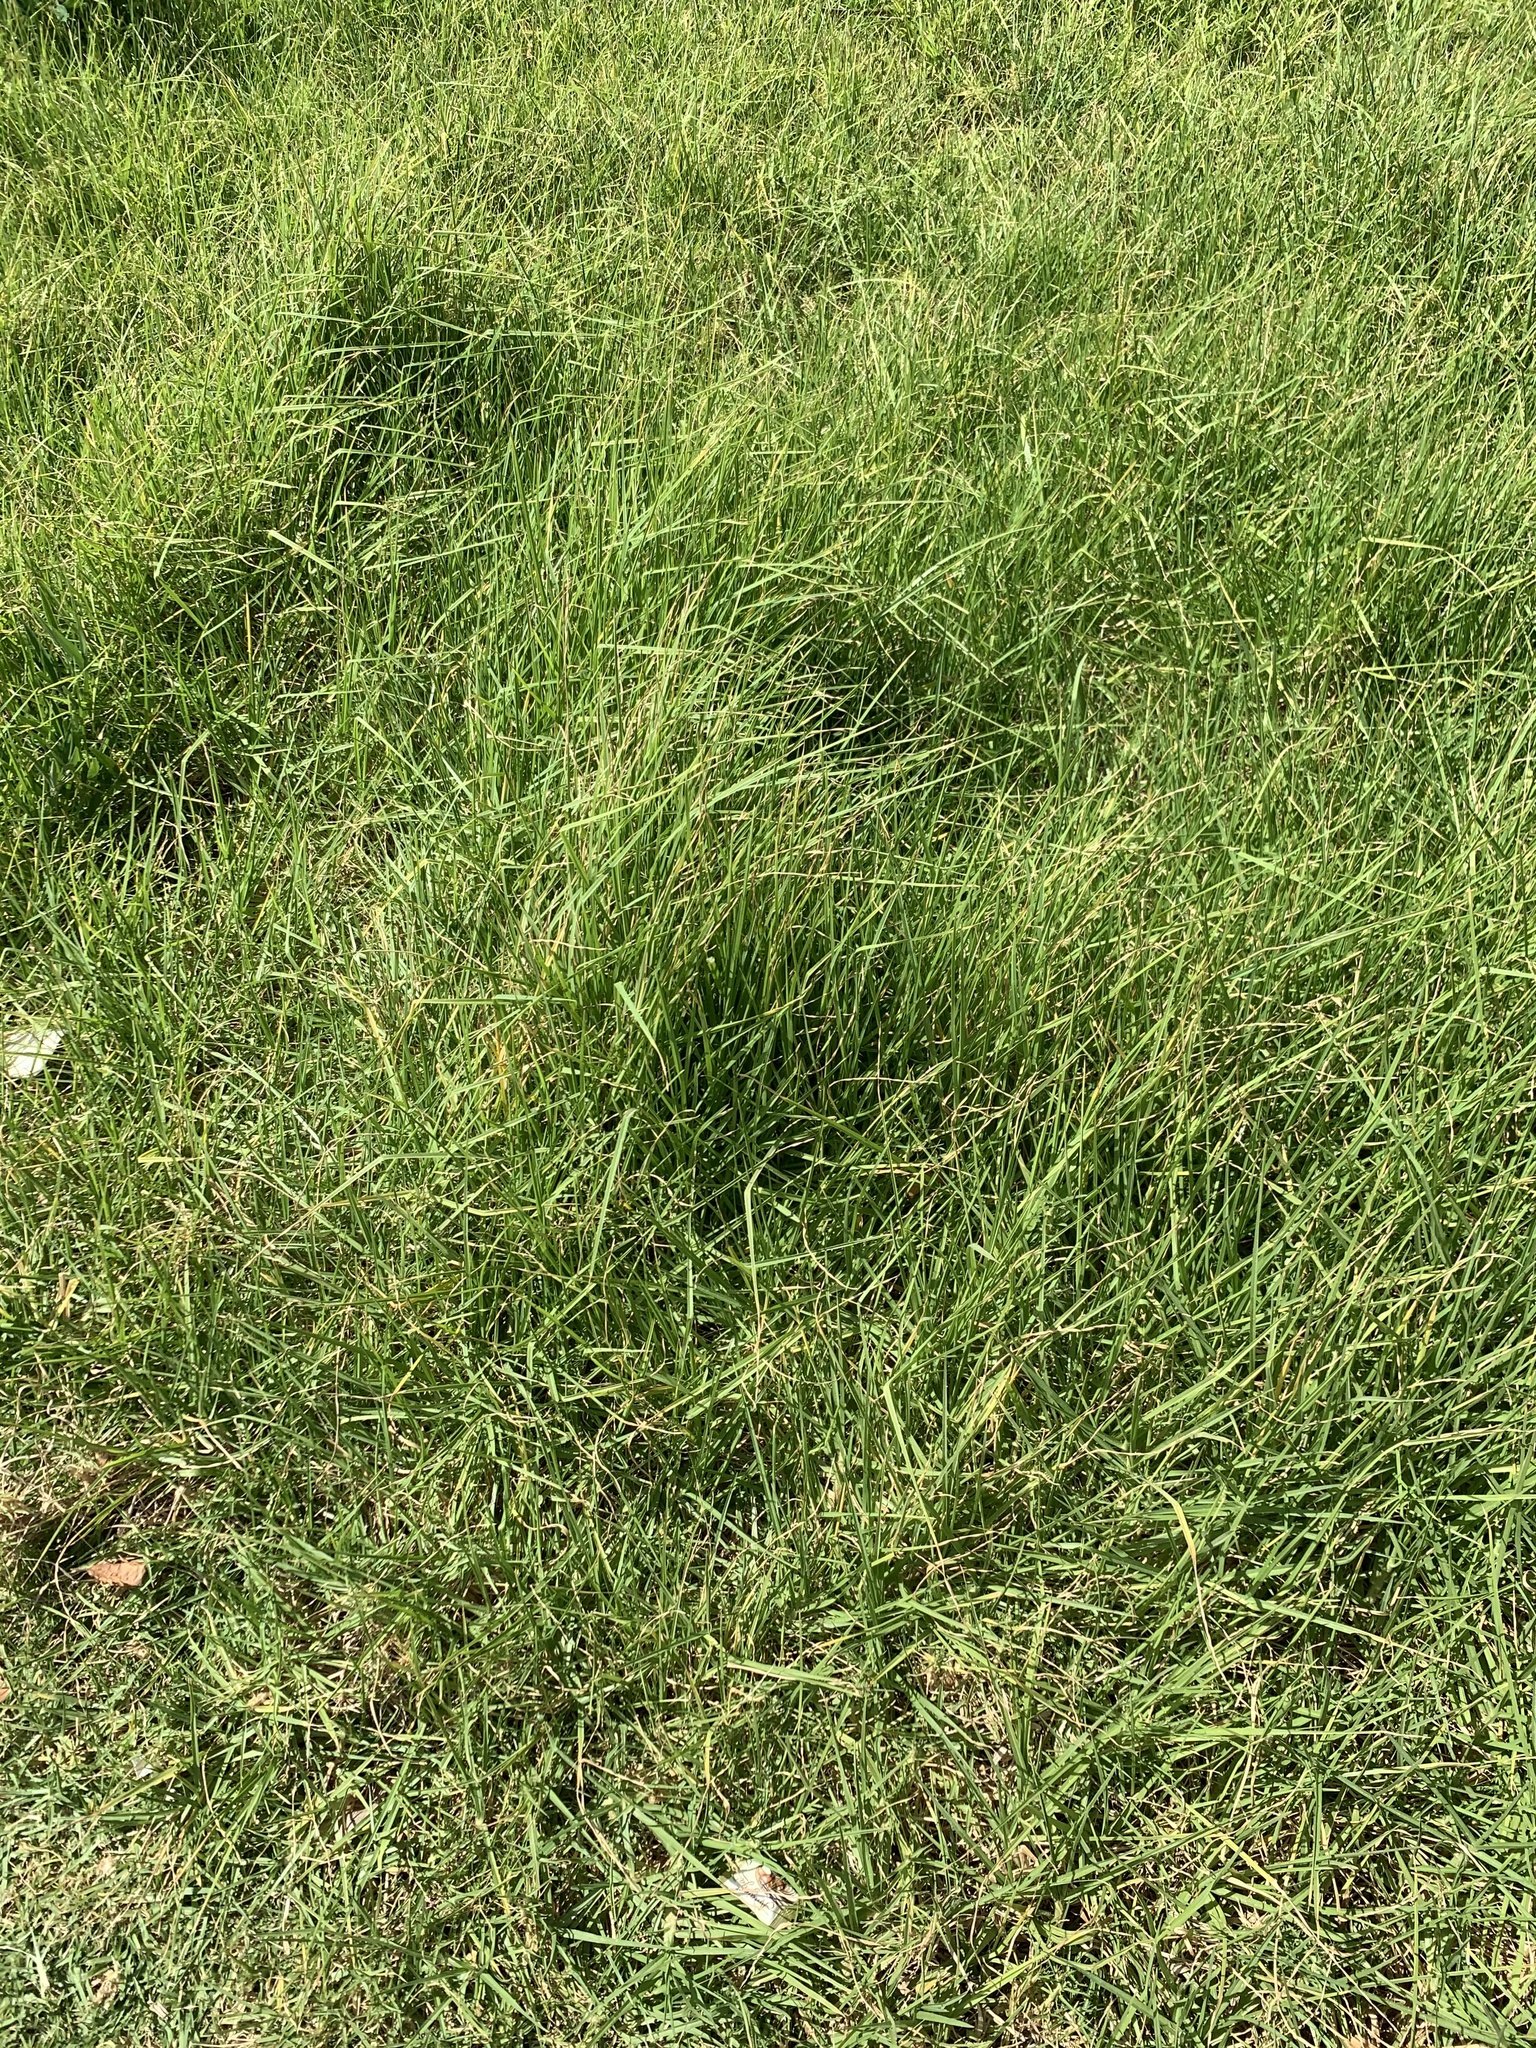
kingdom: Plantae
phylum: Tracheophyta
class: Liliopsida
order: Poales
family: Poaceae
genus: Cenchrus
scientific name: Cenchrus clandestinus
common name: Kikuyugrass
